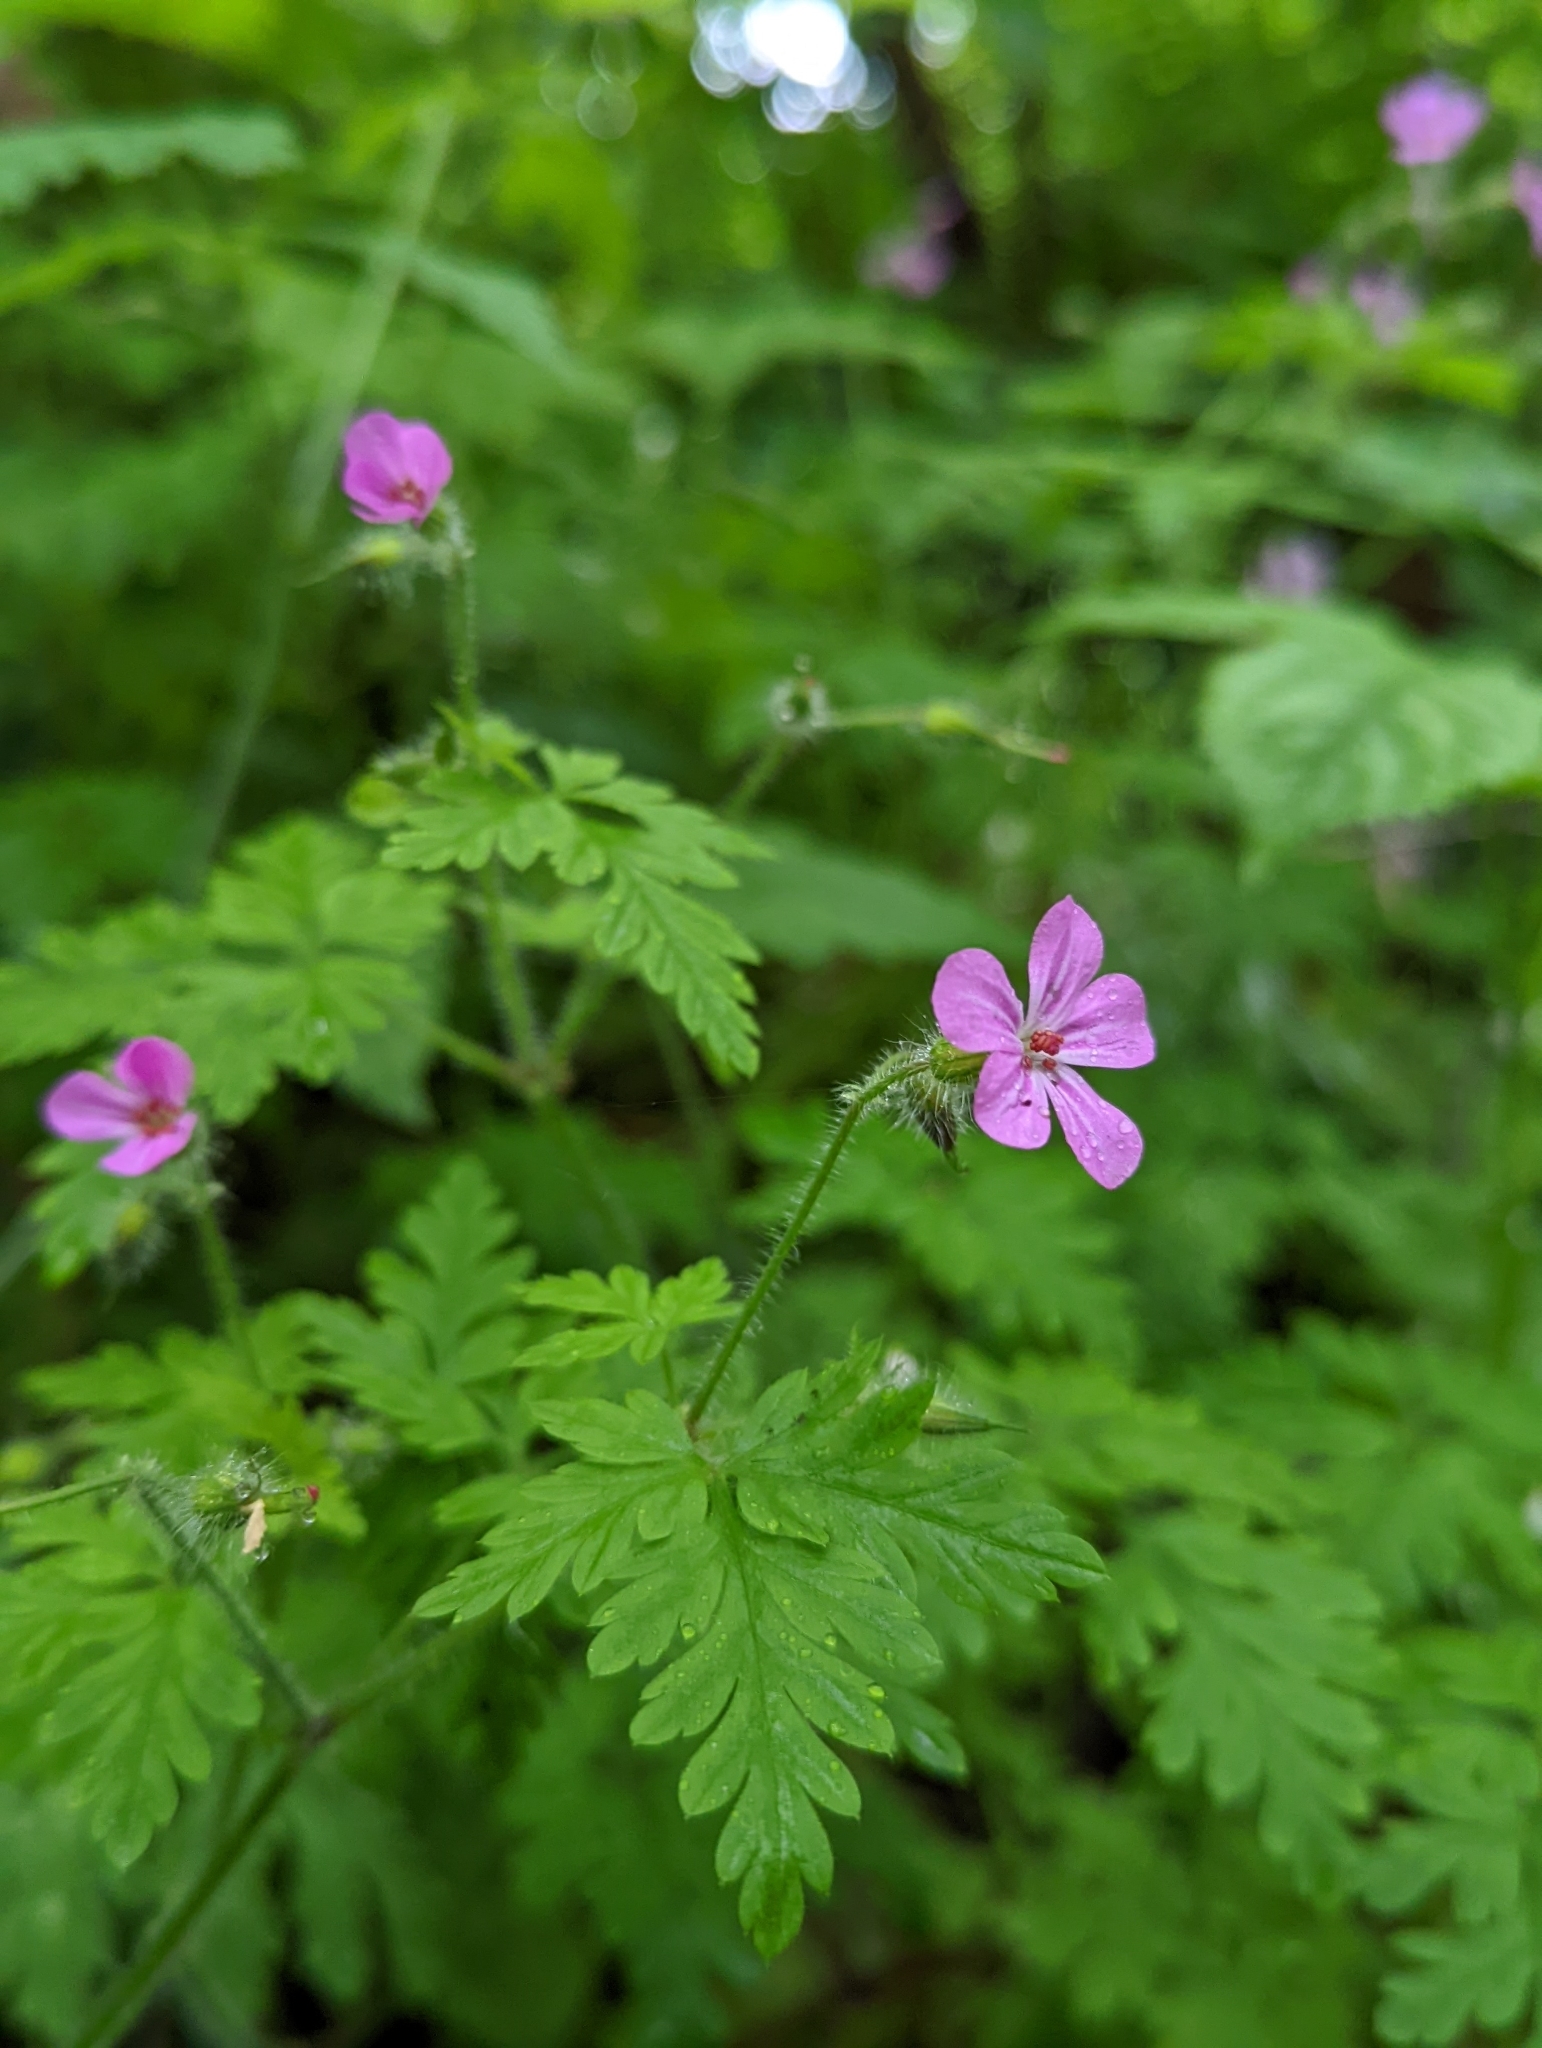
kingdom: Plantae
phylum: Tracheophyta
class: Magnoliopsida
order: Geraniales
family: Geraniaceae
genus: Geranium
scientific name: Geranium robertianum
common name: Herb-robert
